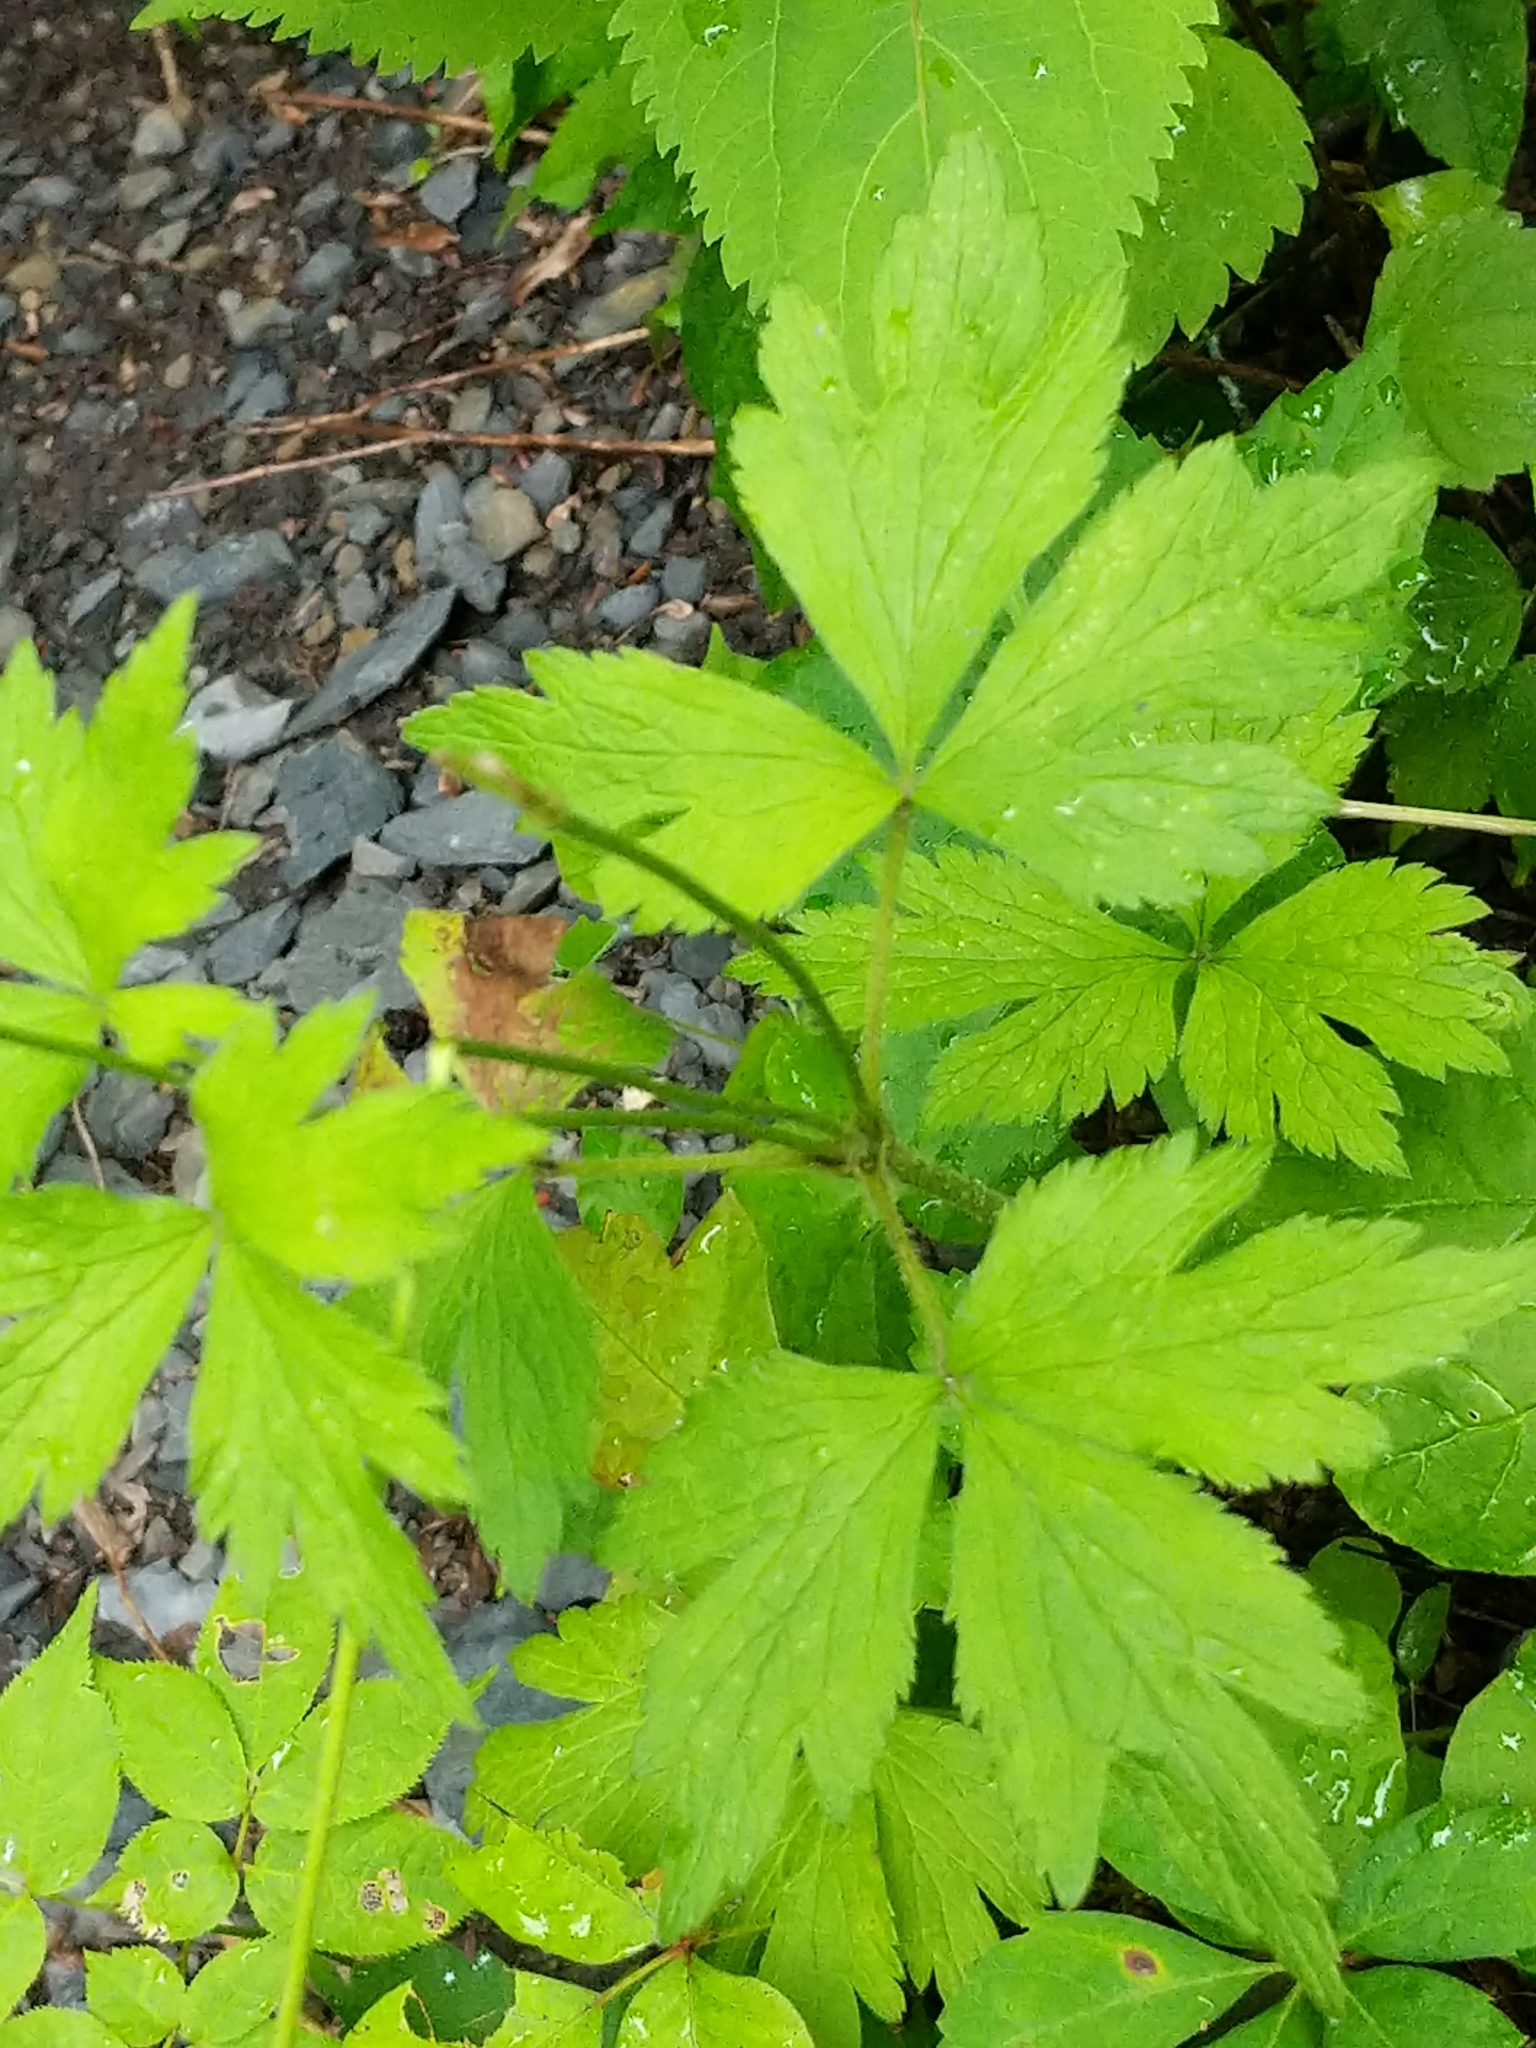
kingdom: Plantae
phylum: Tracheophyta
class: Magnoliopsida
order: Ranunculales
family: Ranunculaceae
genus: Anemone
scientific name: Anemone virginiana
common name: Tall anemone
